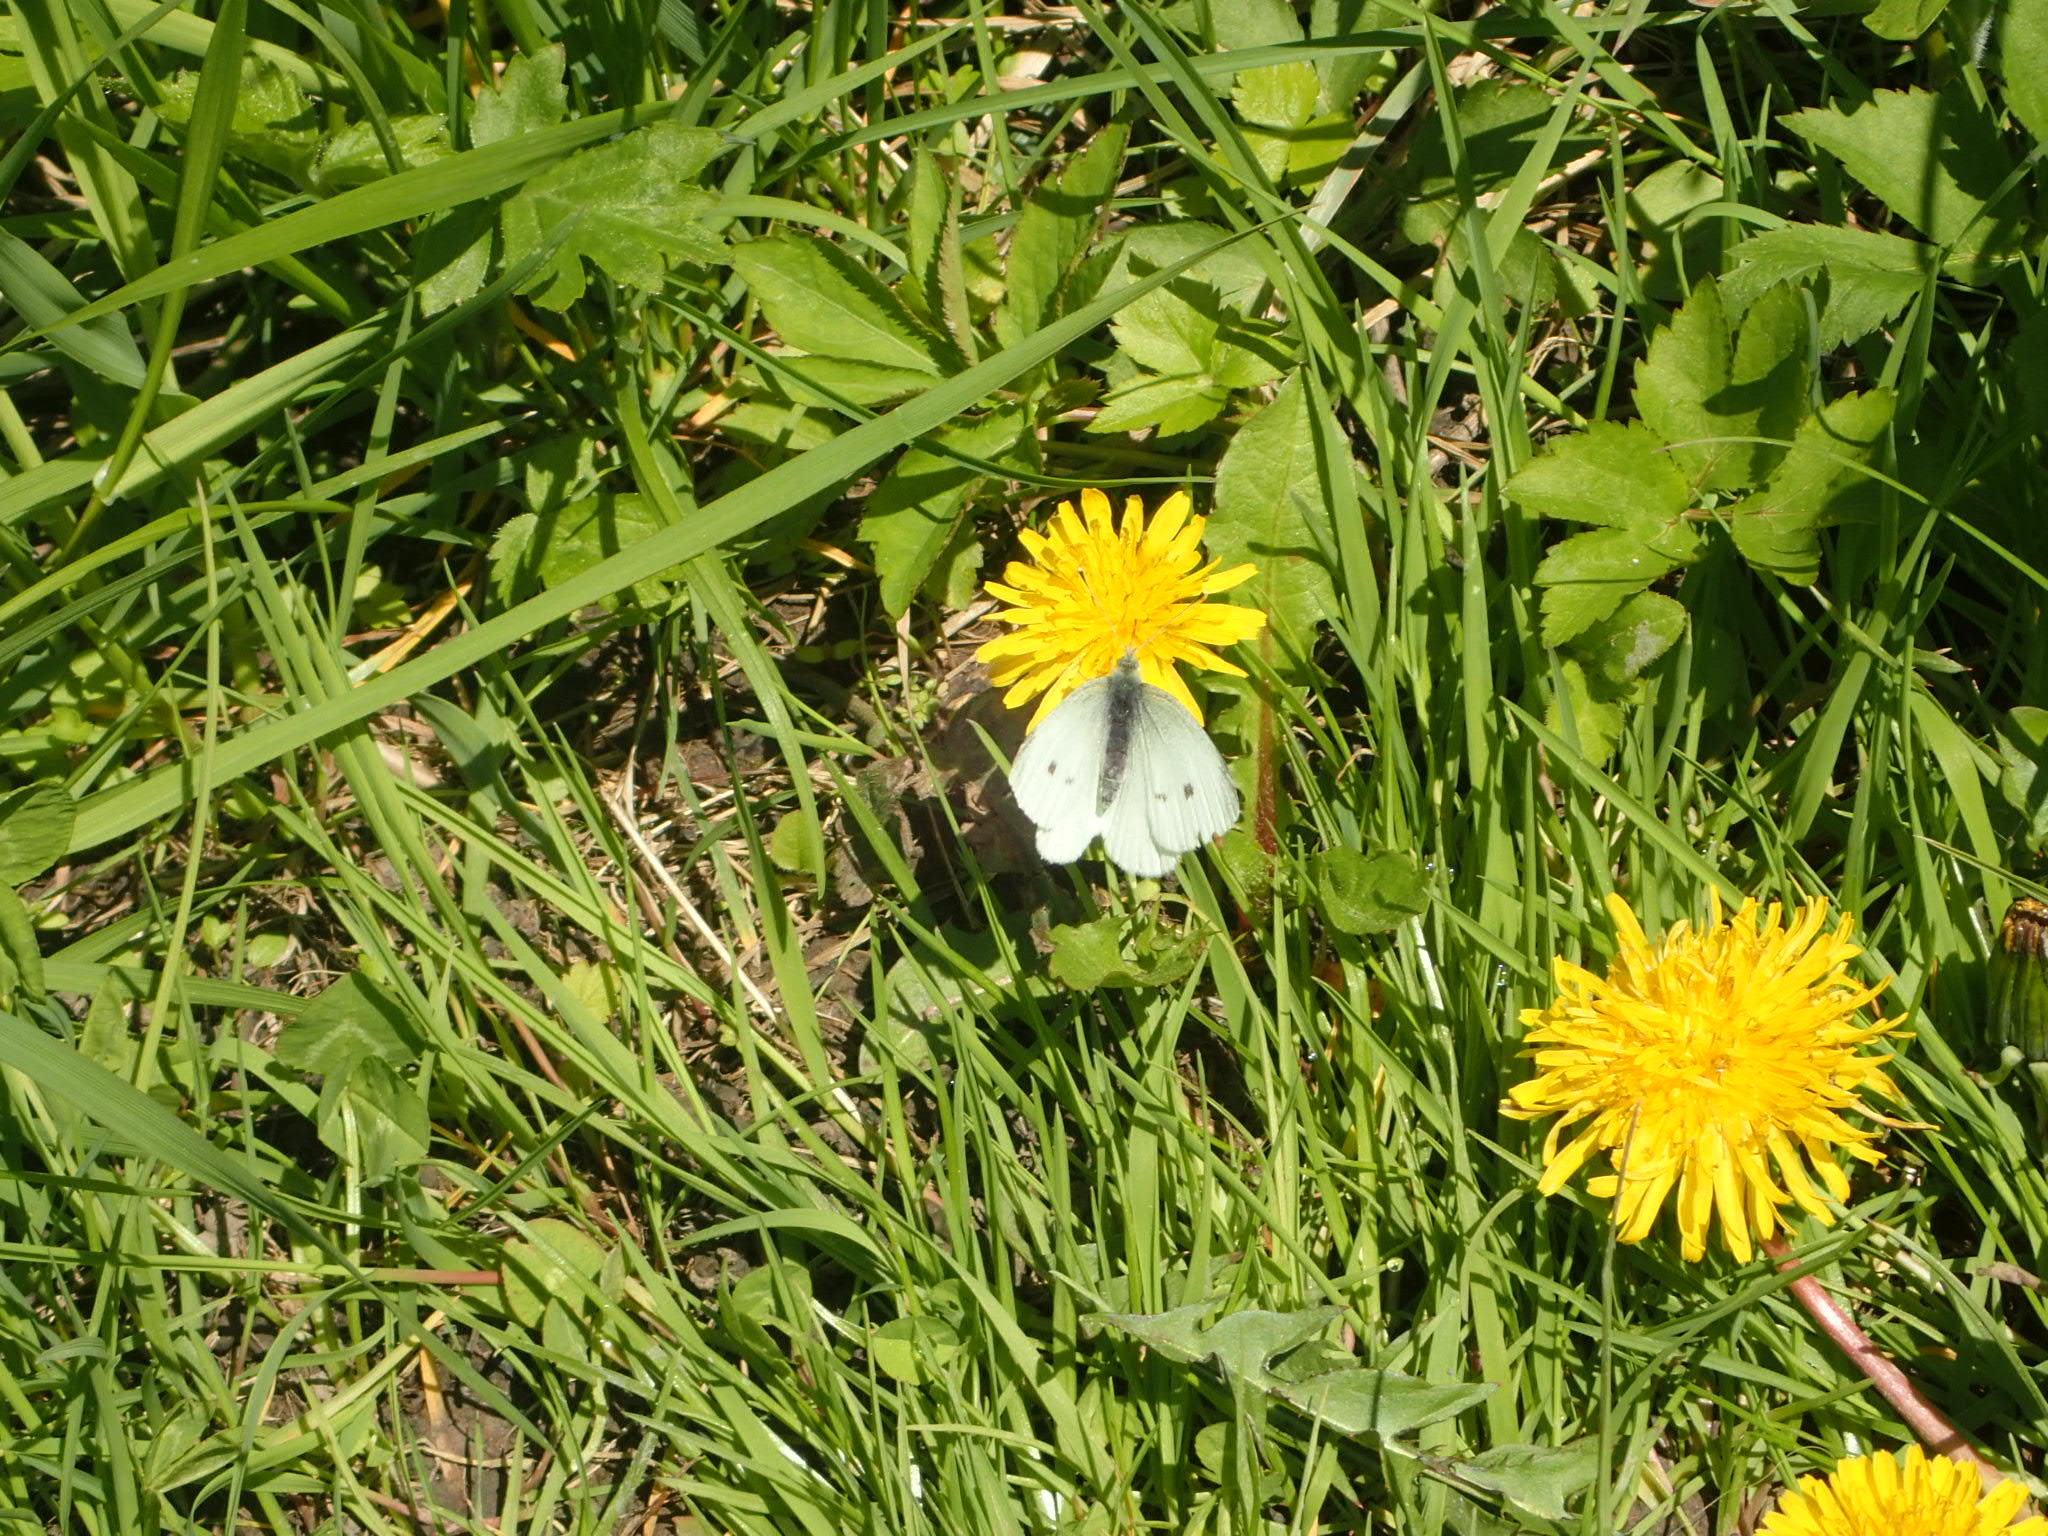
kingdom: Animalia
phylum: Arthropoda
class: Insecta
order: Lepidoptera
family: Pieridae
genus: Pieris
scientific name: Pieris rapae
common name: Small white
